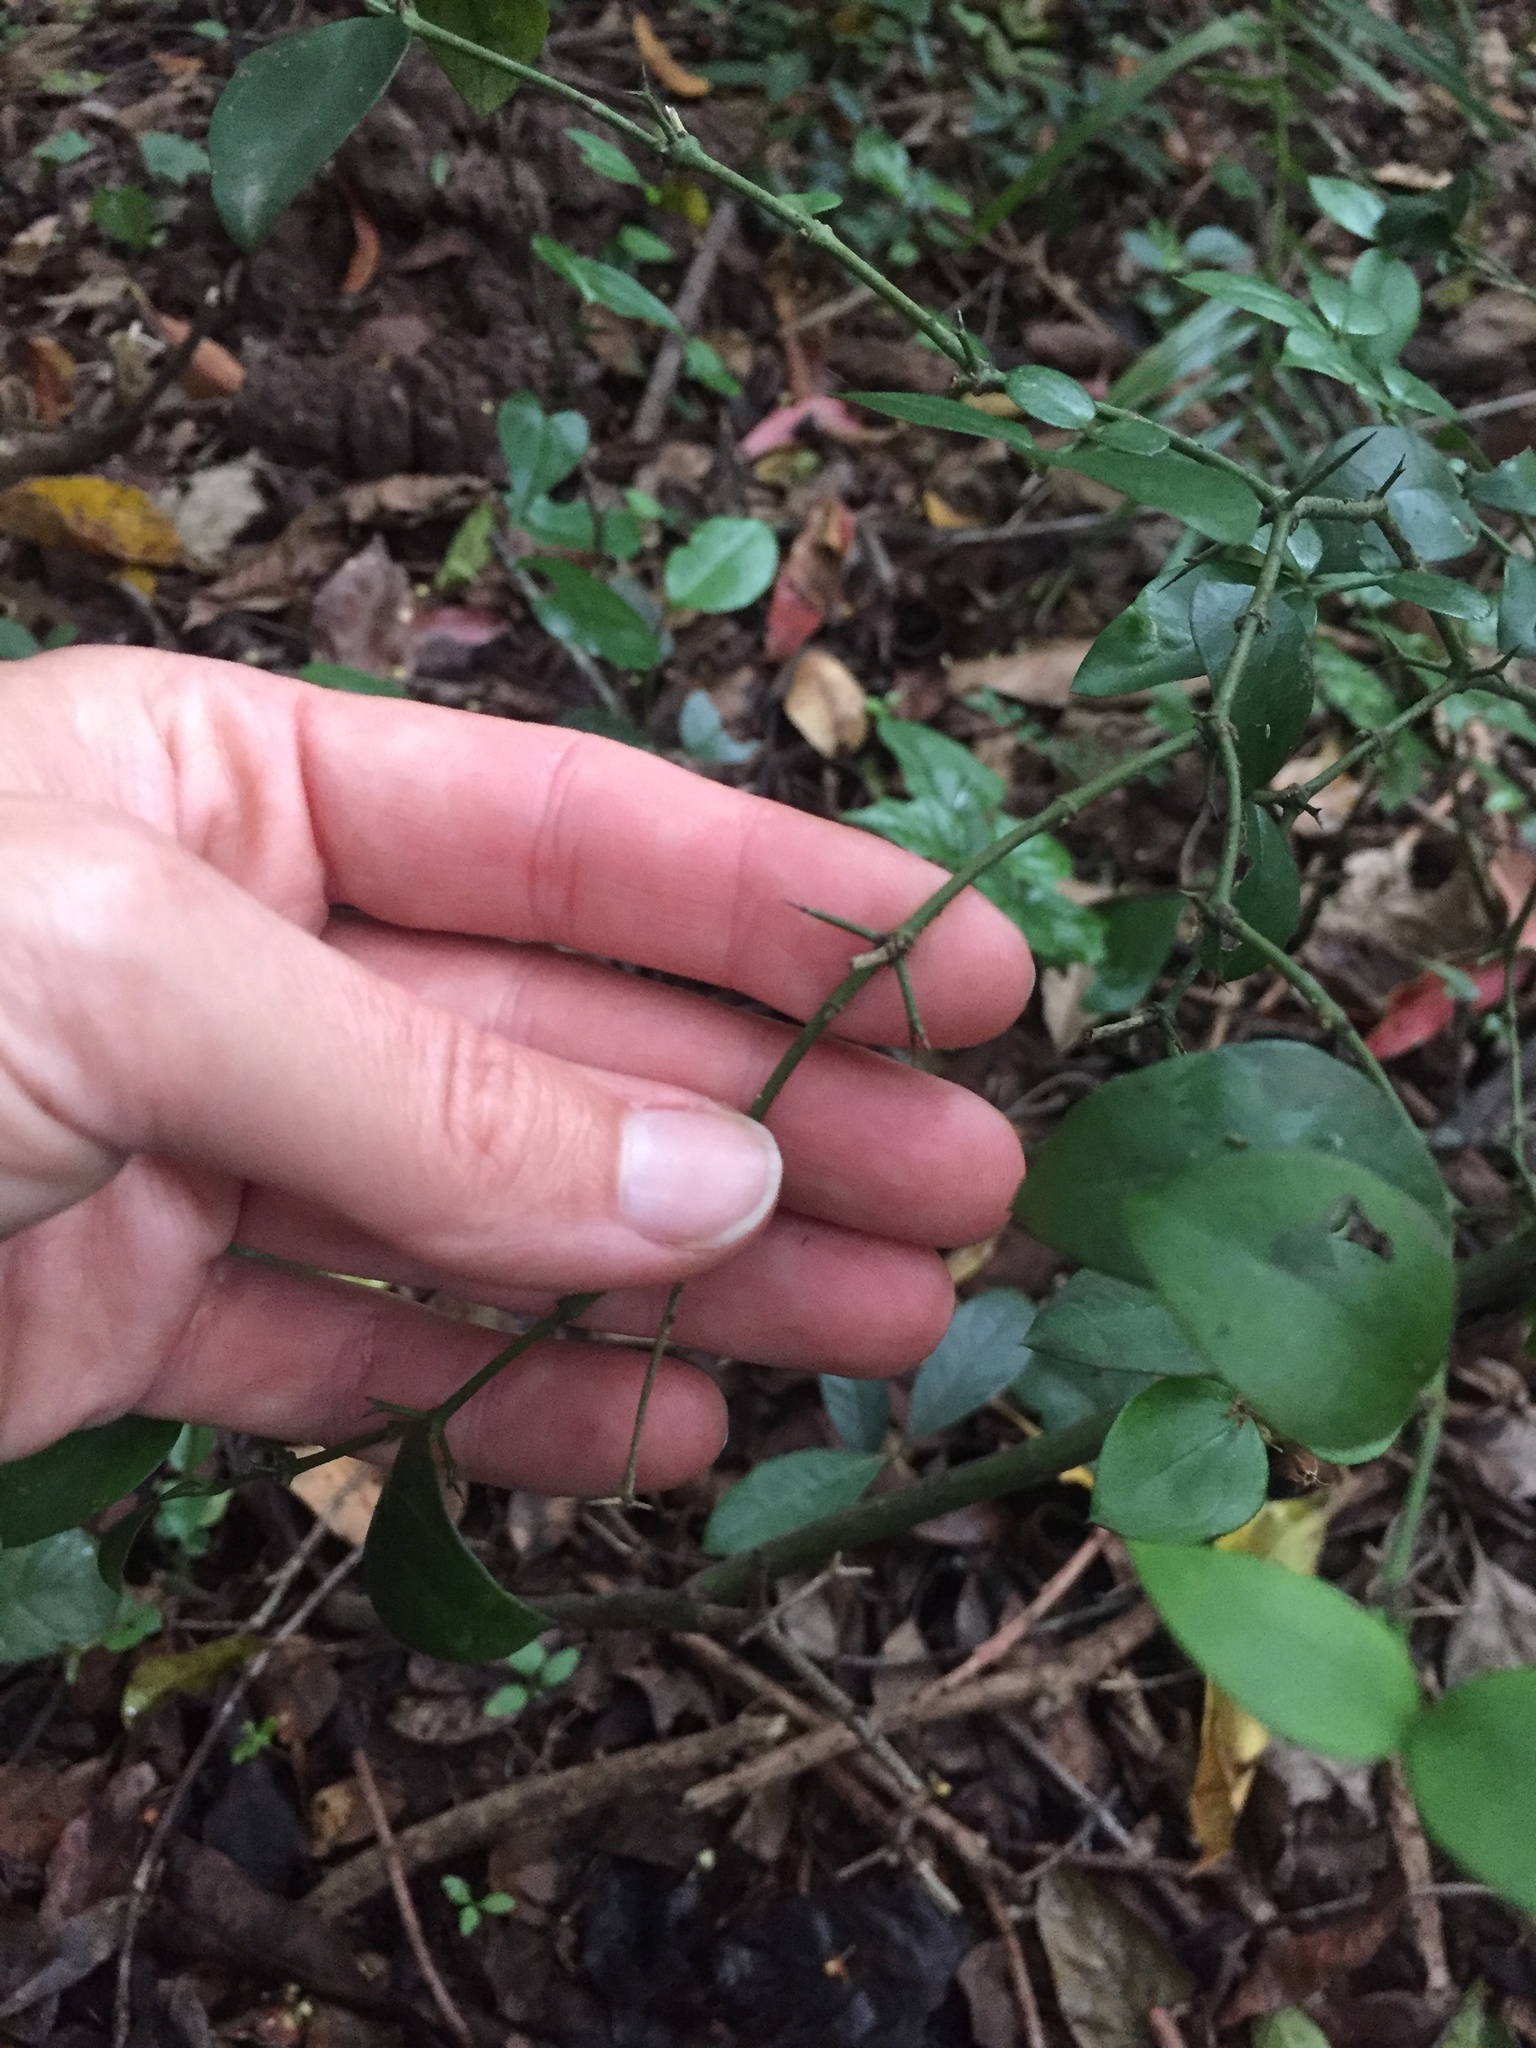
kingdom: Plantae
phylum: Tracheophyta
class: Magnoliopsida
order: Gentianales
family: Apocynaceae
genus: Carissa
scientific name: Carissa bispinosa
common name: Forest num-num
